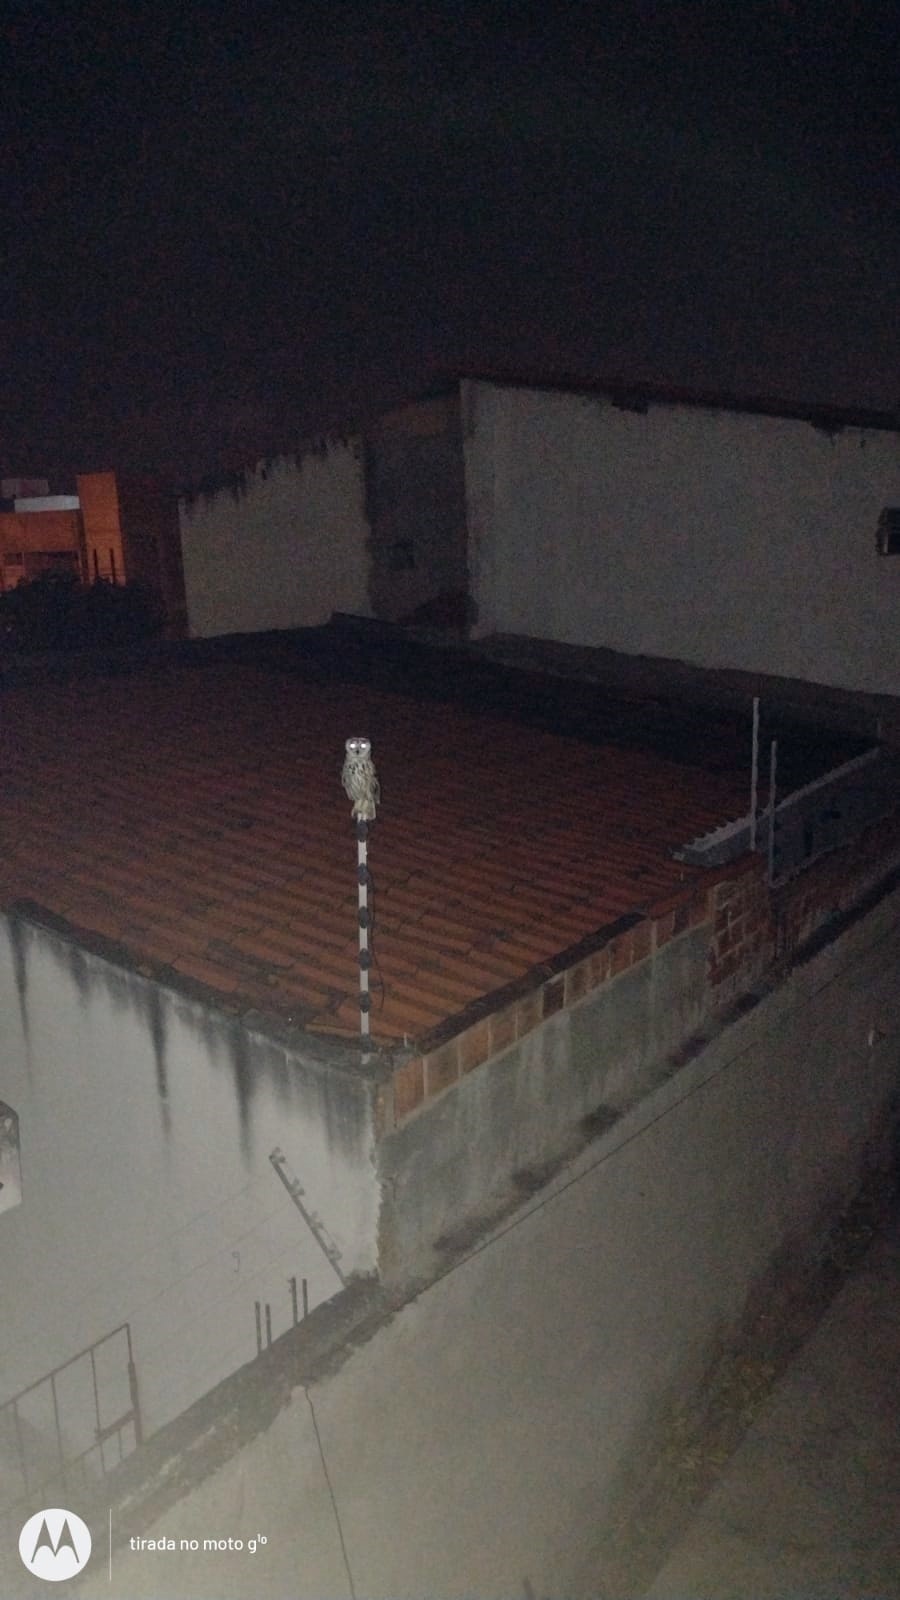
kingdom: Animalia
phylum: Chordata
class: Aves
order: Strigiformes
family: Strigidae
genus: Pseudoscops
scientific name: Pseudoscops clamator
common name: Striped owl
